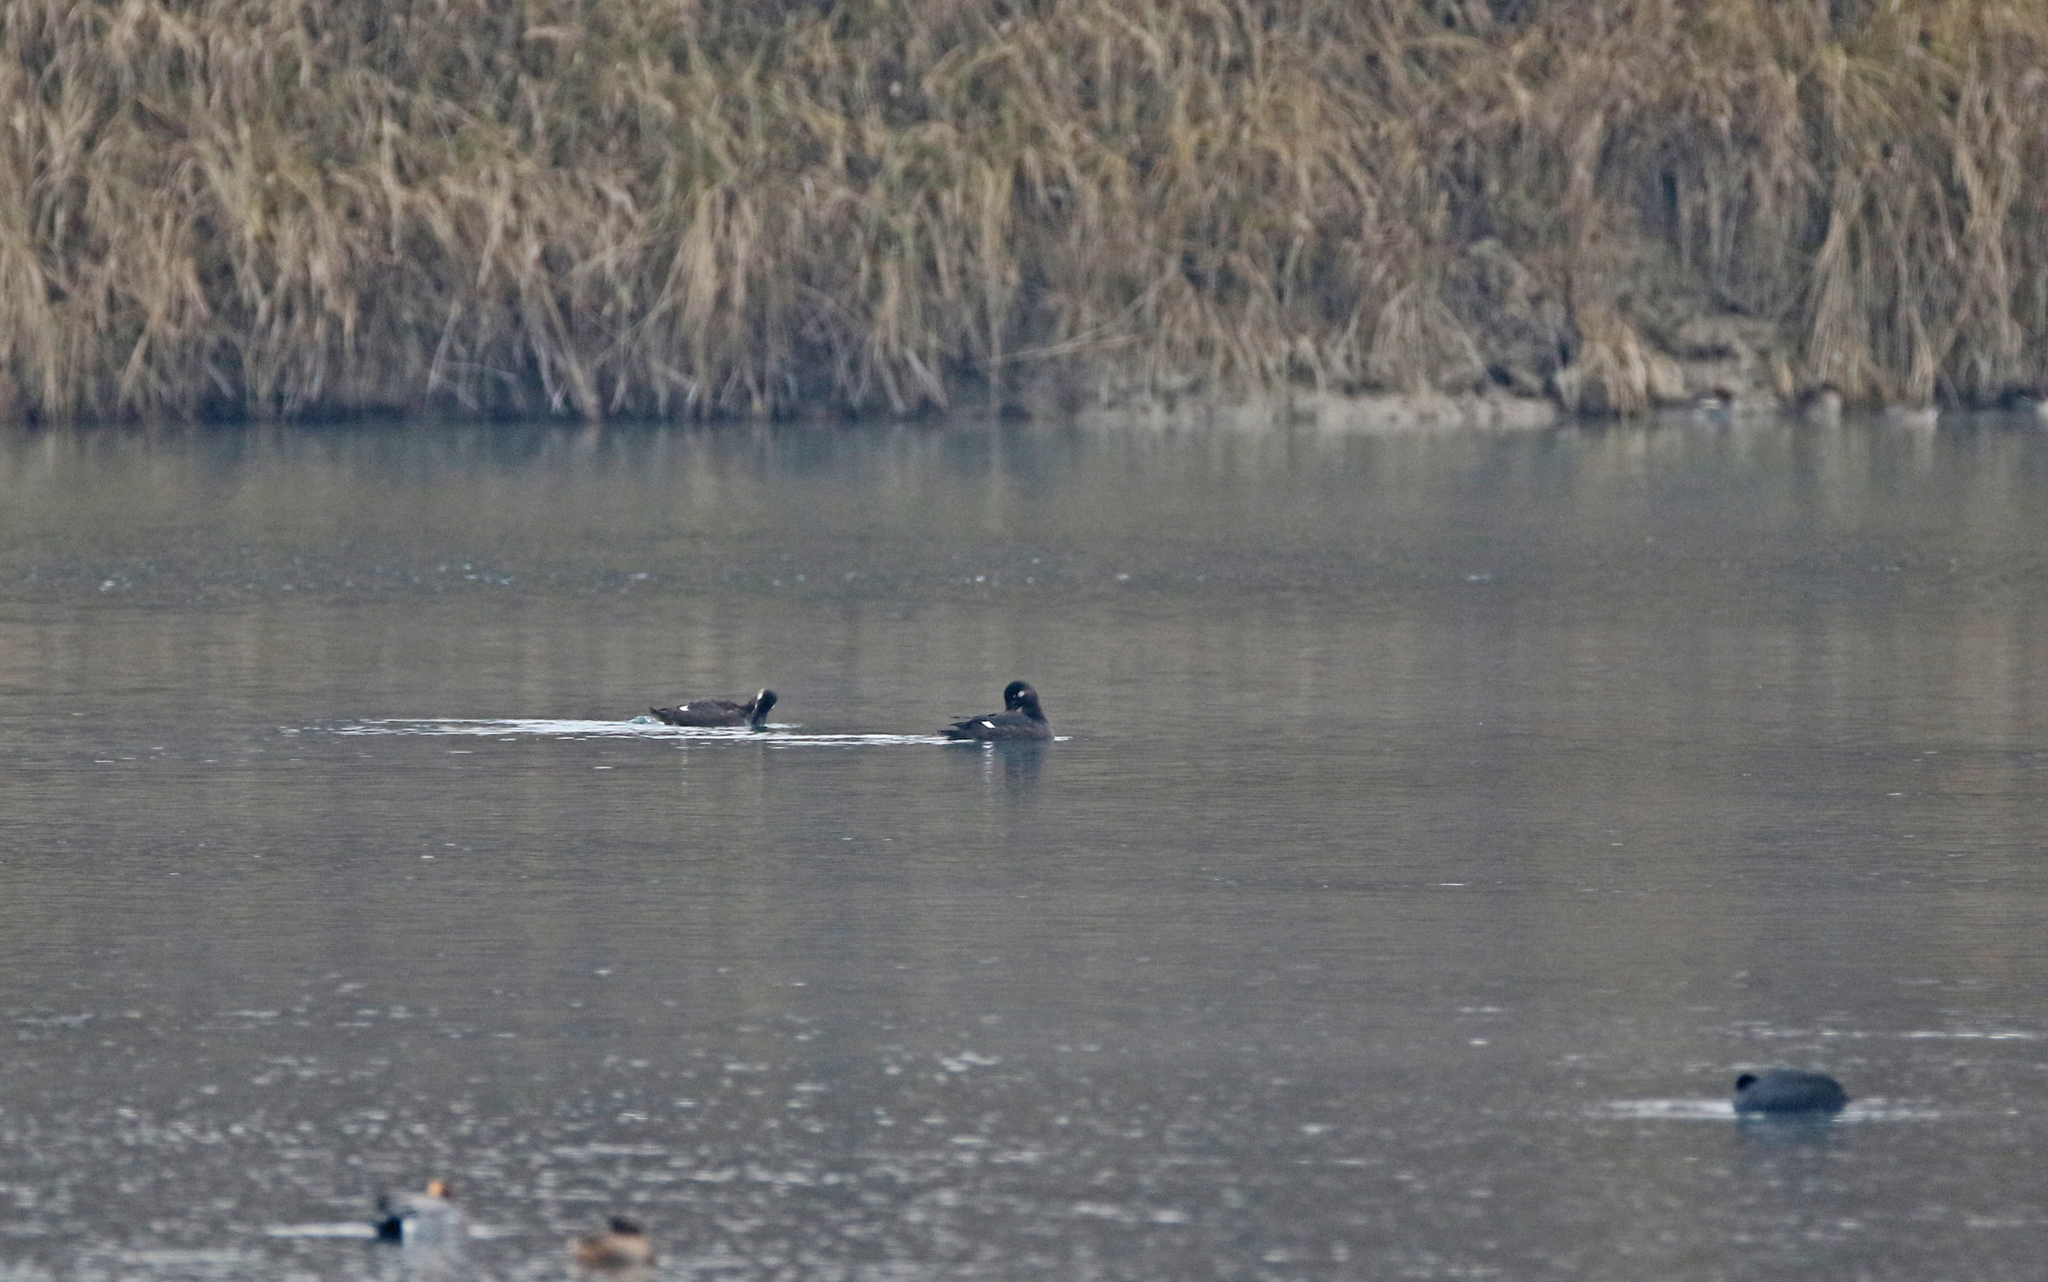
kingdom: Animalia
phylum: Chordata
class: Aves
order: Anseriformes
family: Anatidae
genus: Melanitta
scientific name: Melanitta fusca
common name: Velvet scoter
